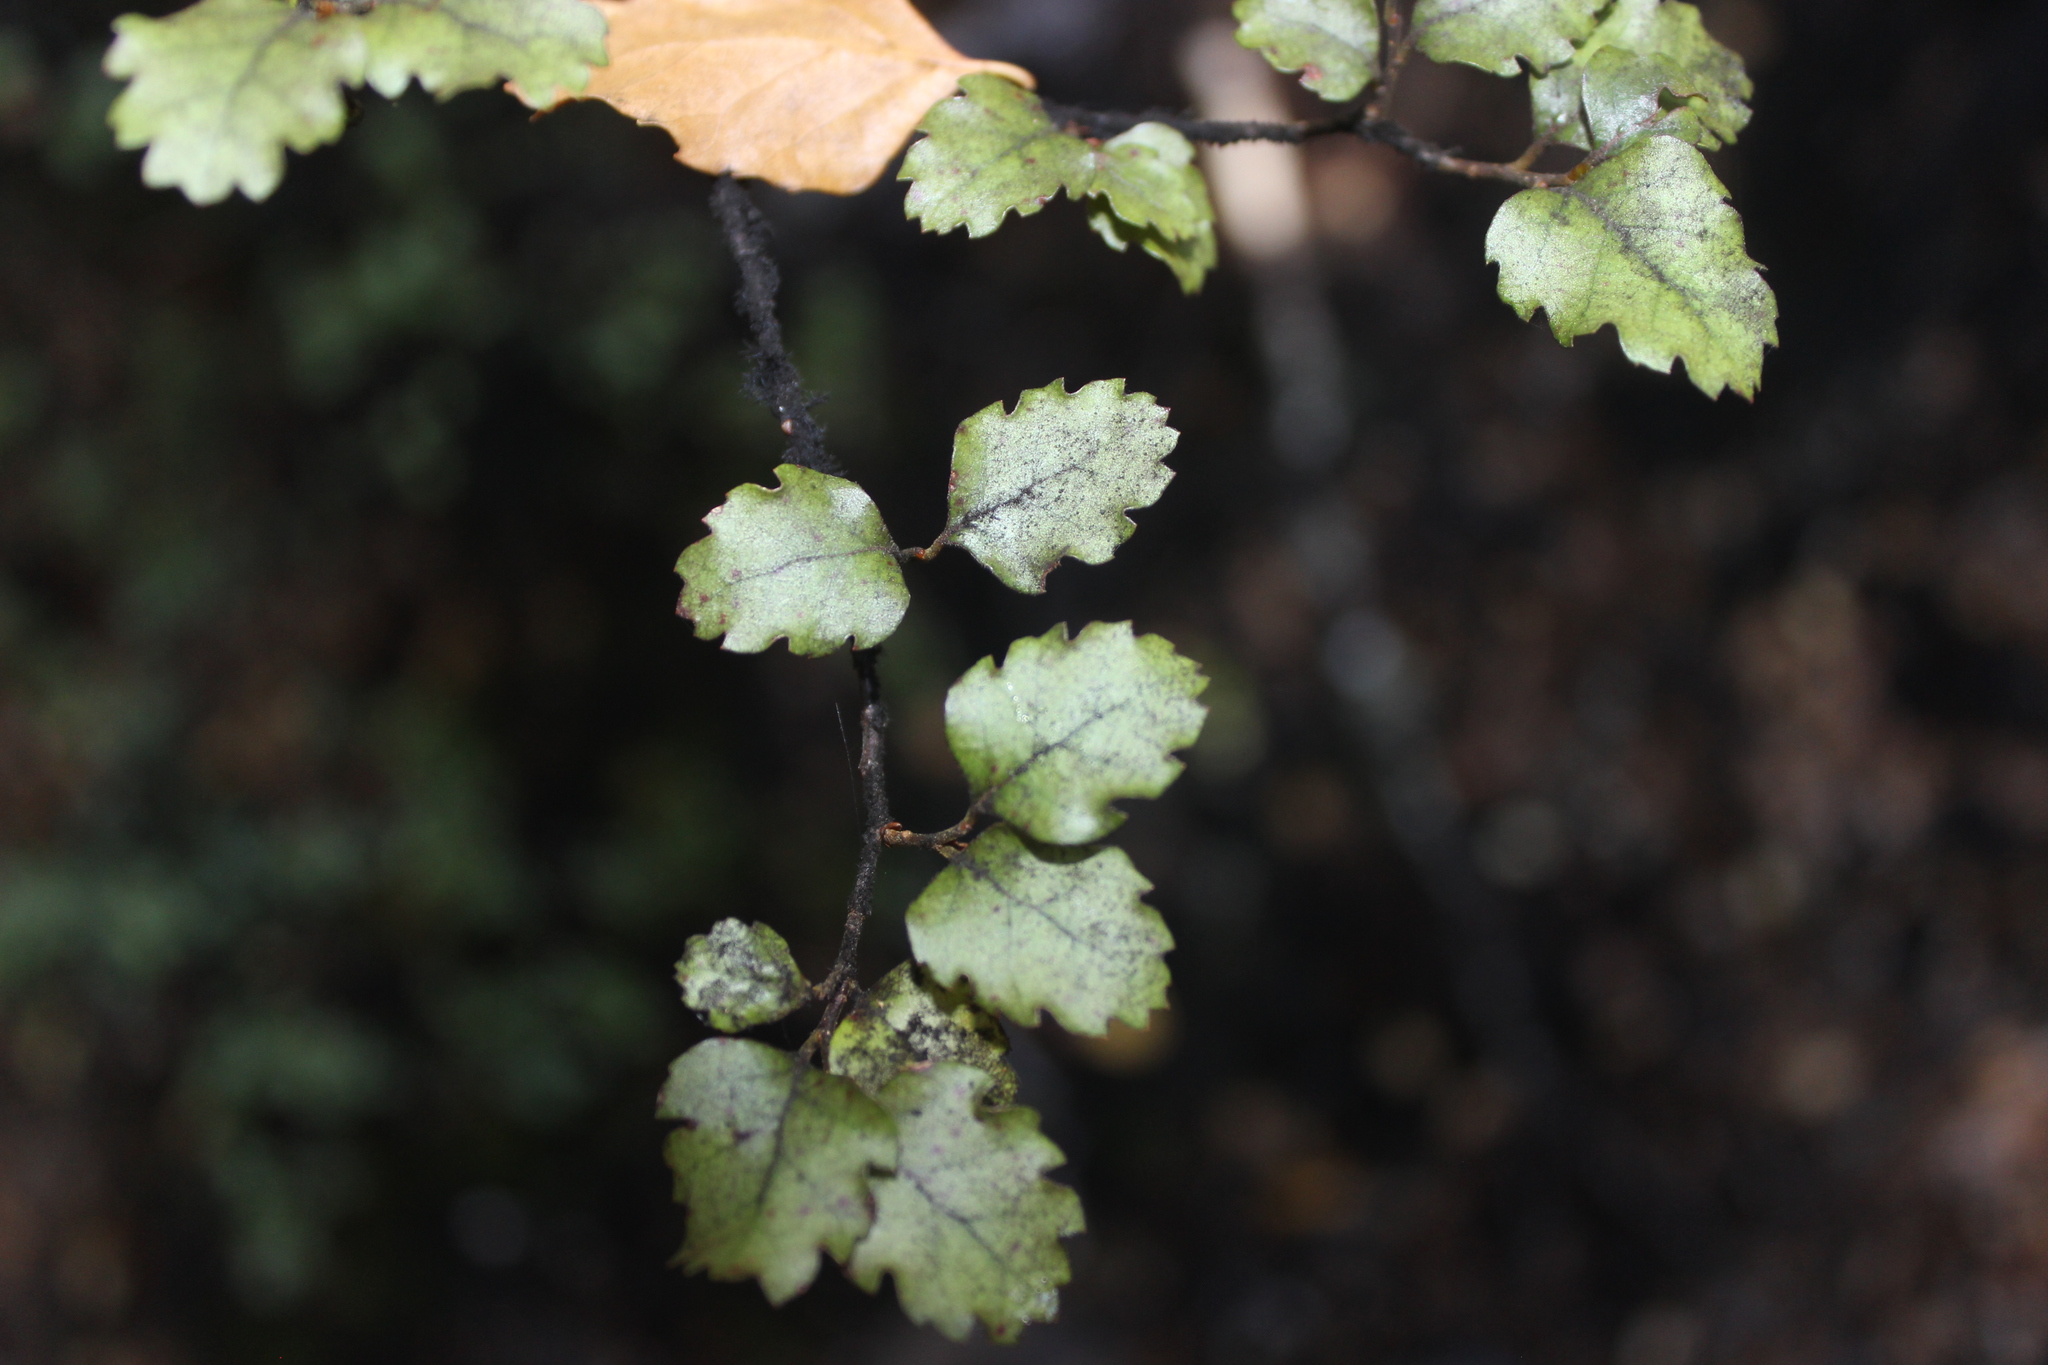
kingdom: Plantae
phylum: Tracheophyta
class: Magnoliopsida
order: Fagales
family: Nothofagaceae
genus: Nothofagus
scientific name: Nothofagus fusca
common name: Red beech
